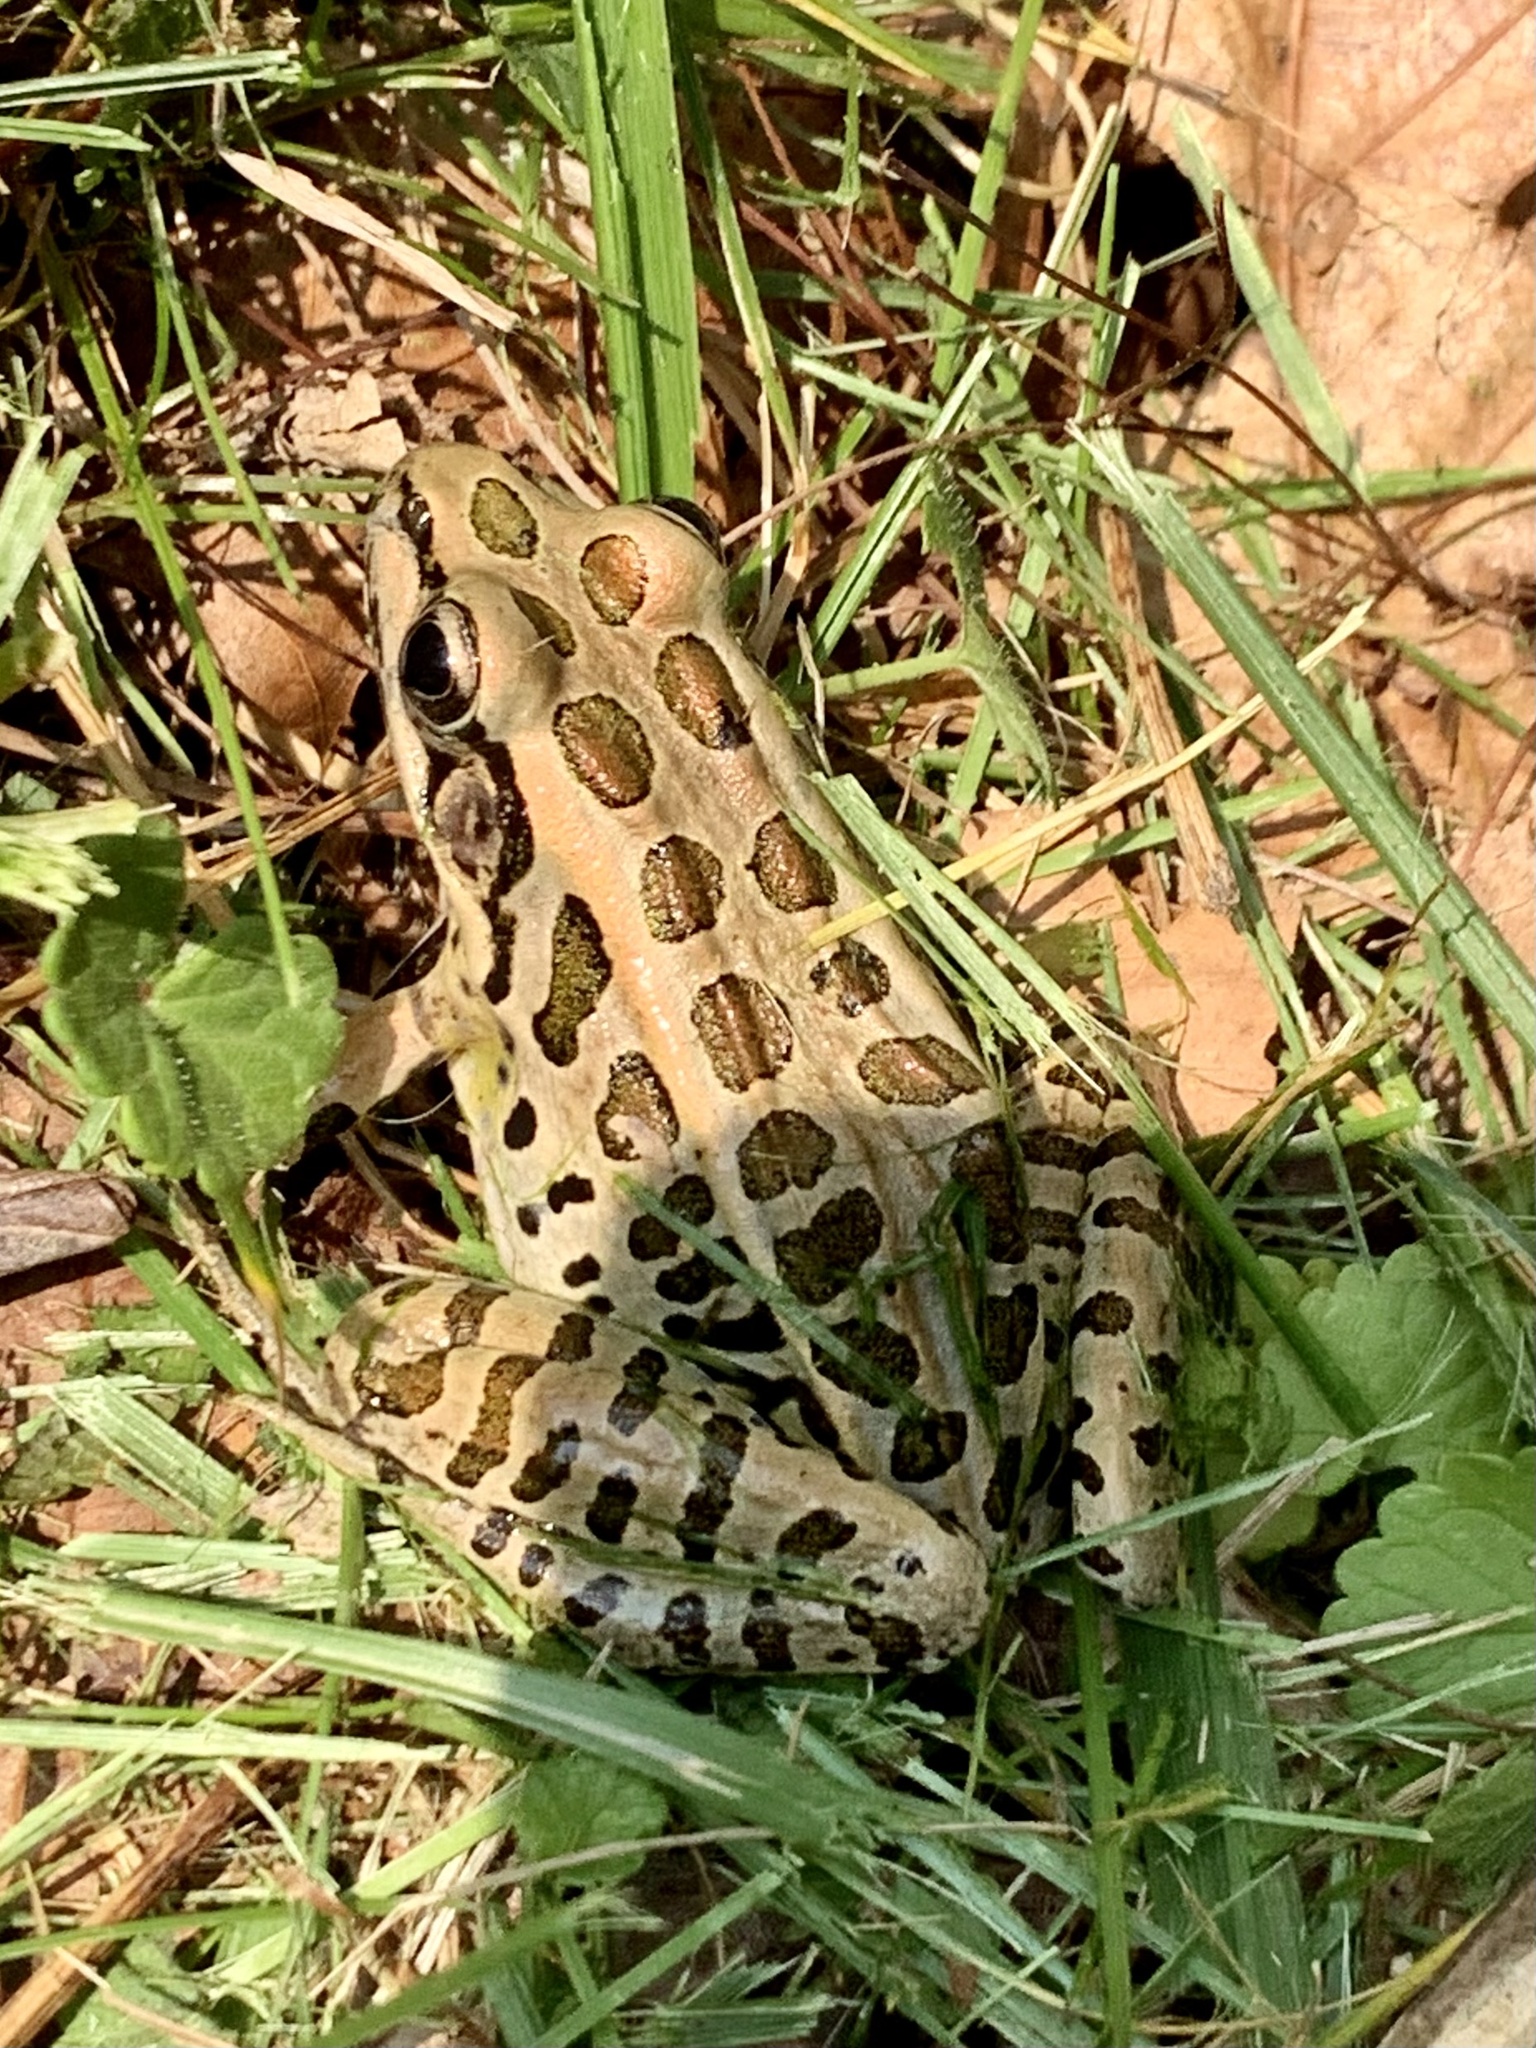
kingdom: Animalia
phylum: Chordata
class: Amphibia
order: Anura
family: Ranidae
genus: Lithobates
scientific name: Lithobates palustris
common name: Pickerel frog
